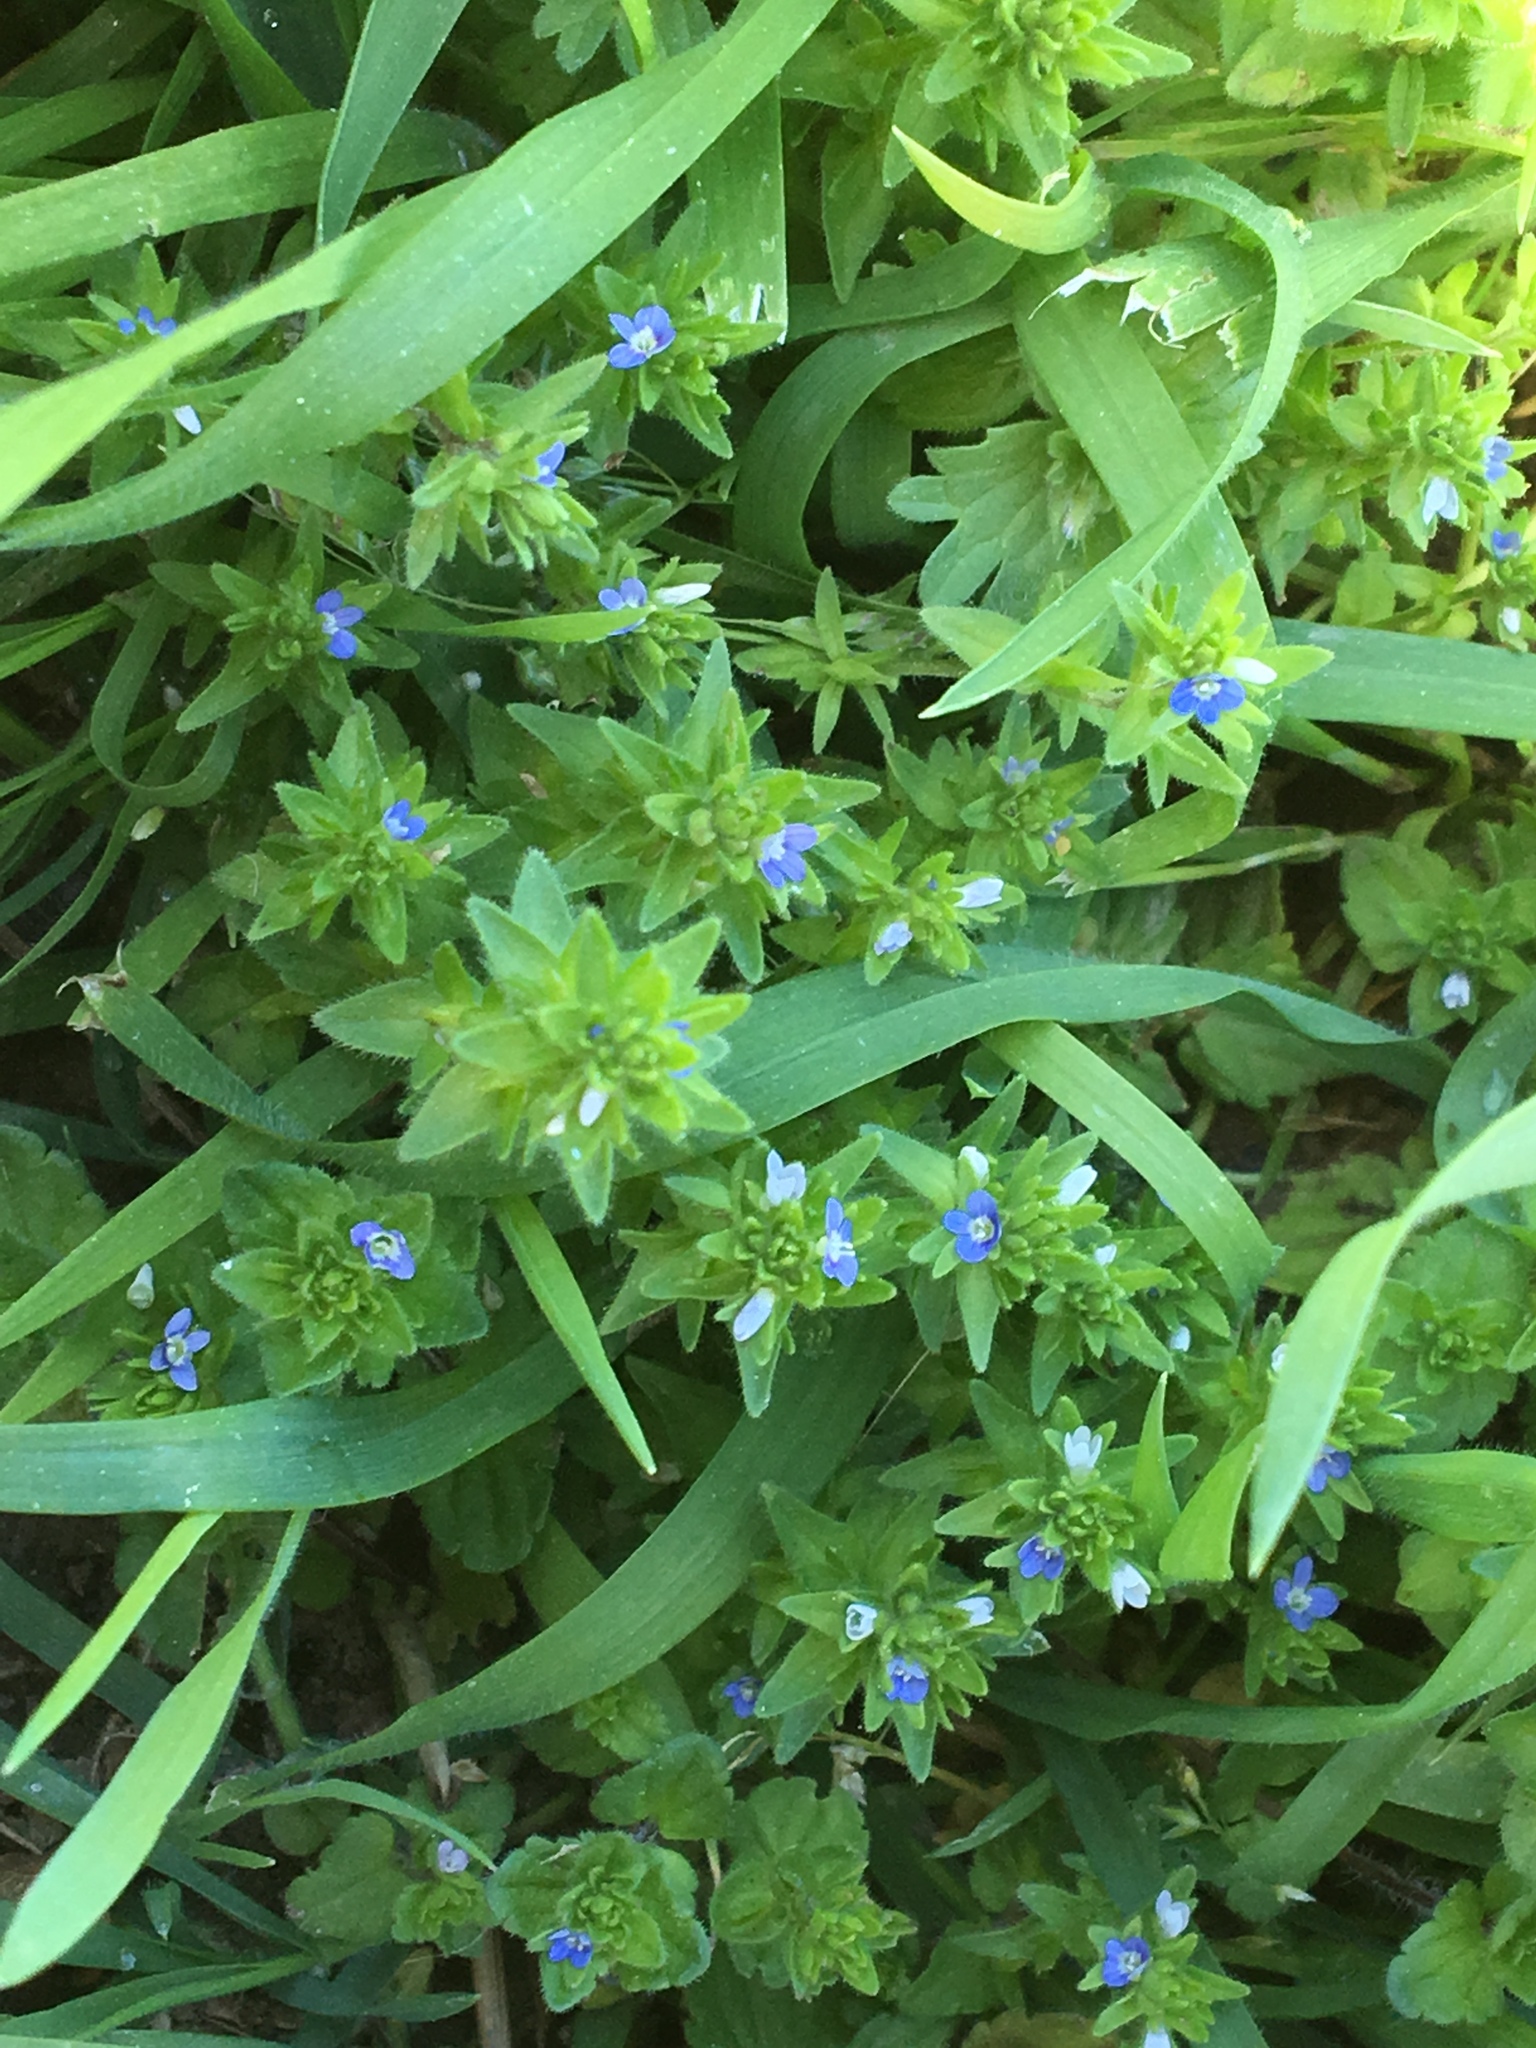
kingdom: Plantae
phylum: Tracheophyta
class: Magnoliopsida
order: Lamiales
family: Plantaginaceae
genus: Veronica
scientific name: Veronica arvensis
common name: Corn speedwell
